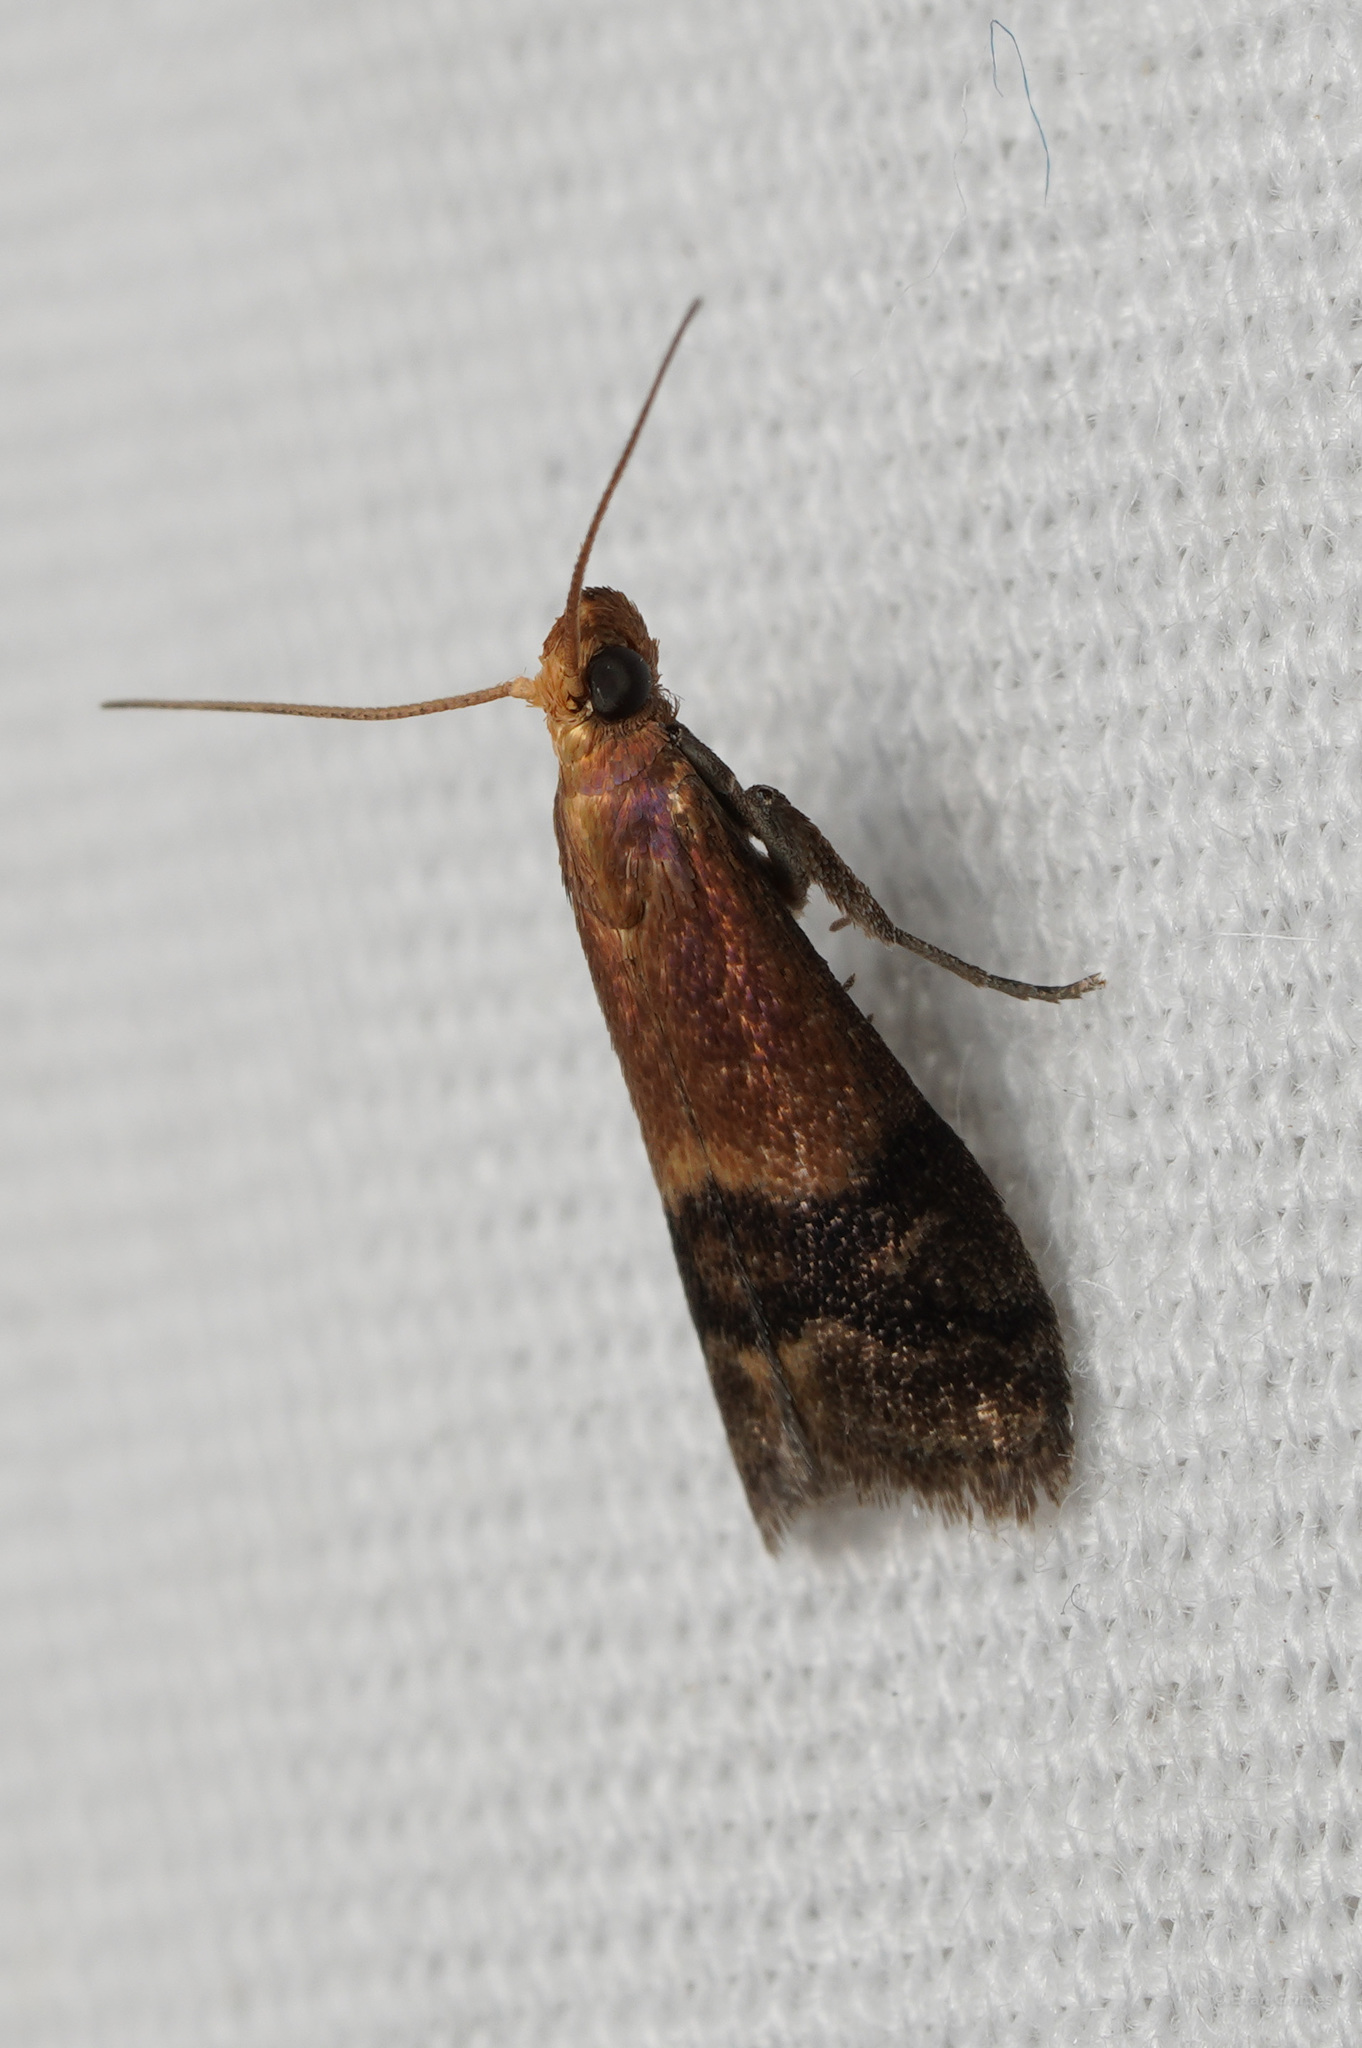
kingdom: Animalia
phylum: Arthropoda
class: Insecta
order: Lepidoptera
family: Pyralidae
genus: Eulogia
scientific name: Eulogia ochrifrontella
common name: Broad-banded eulogia moth
